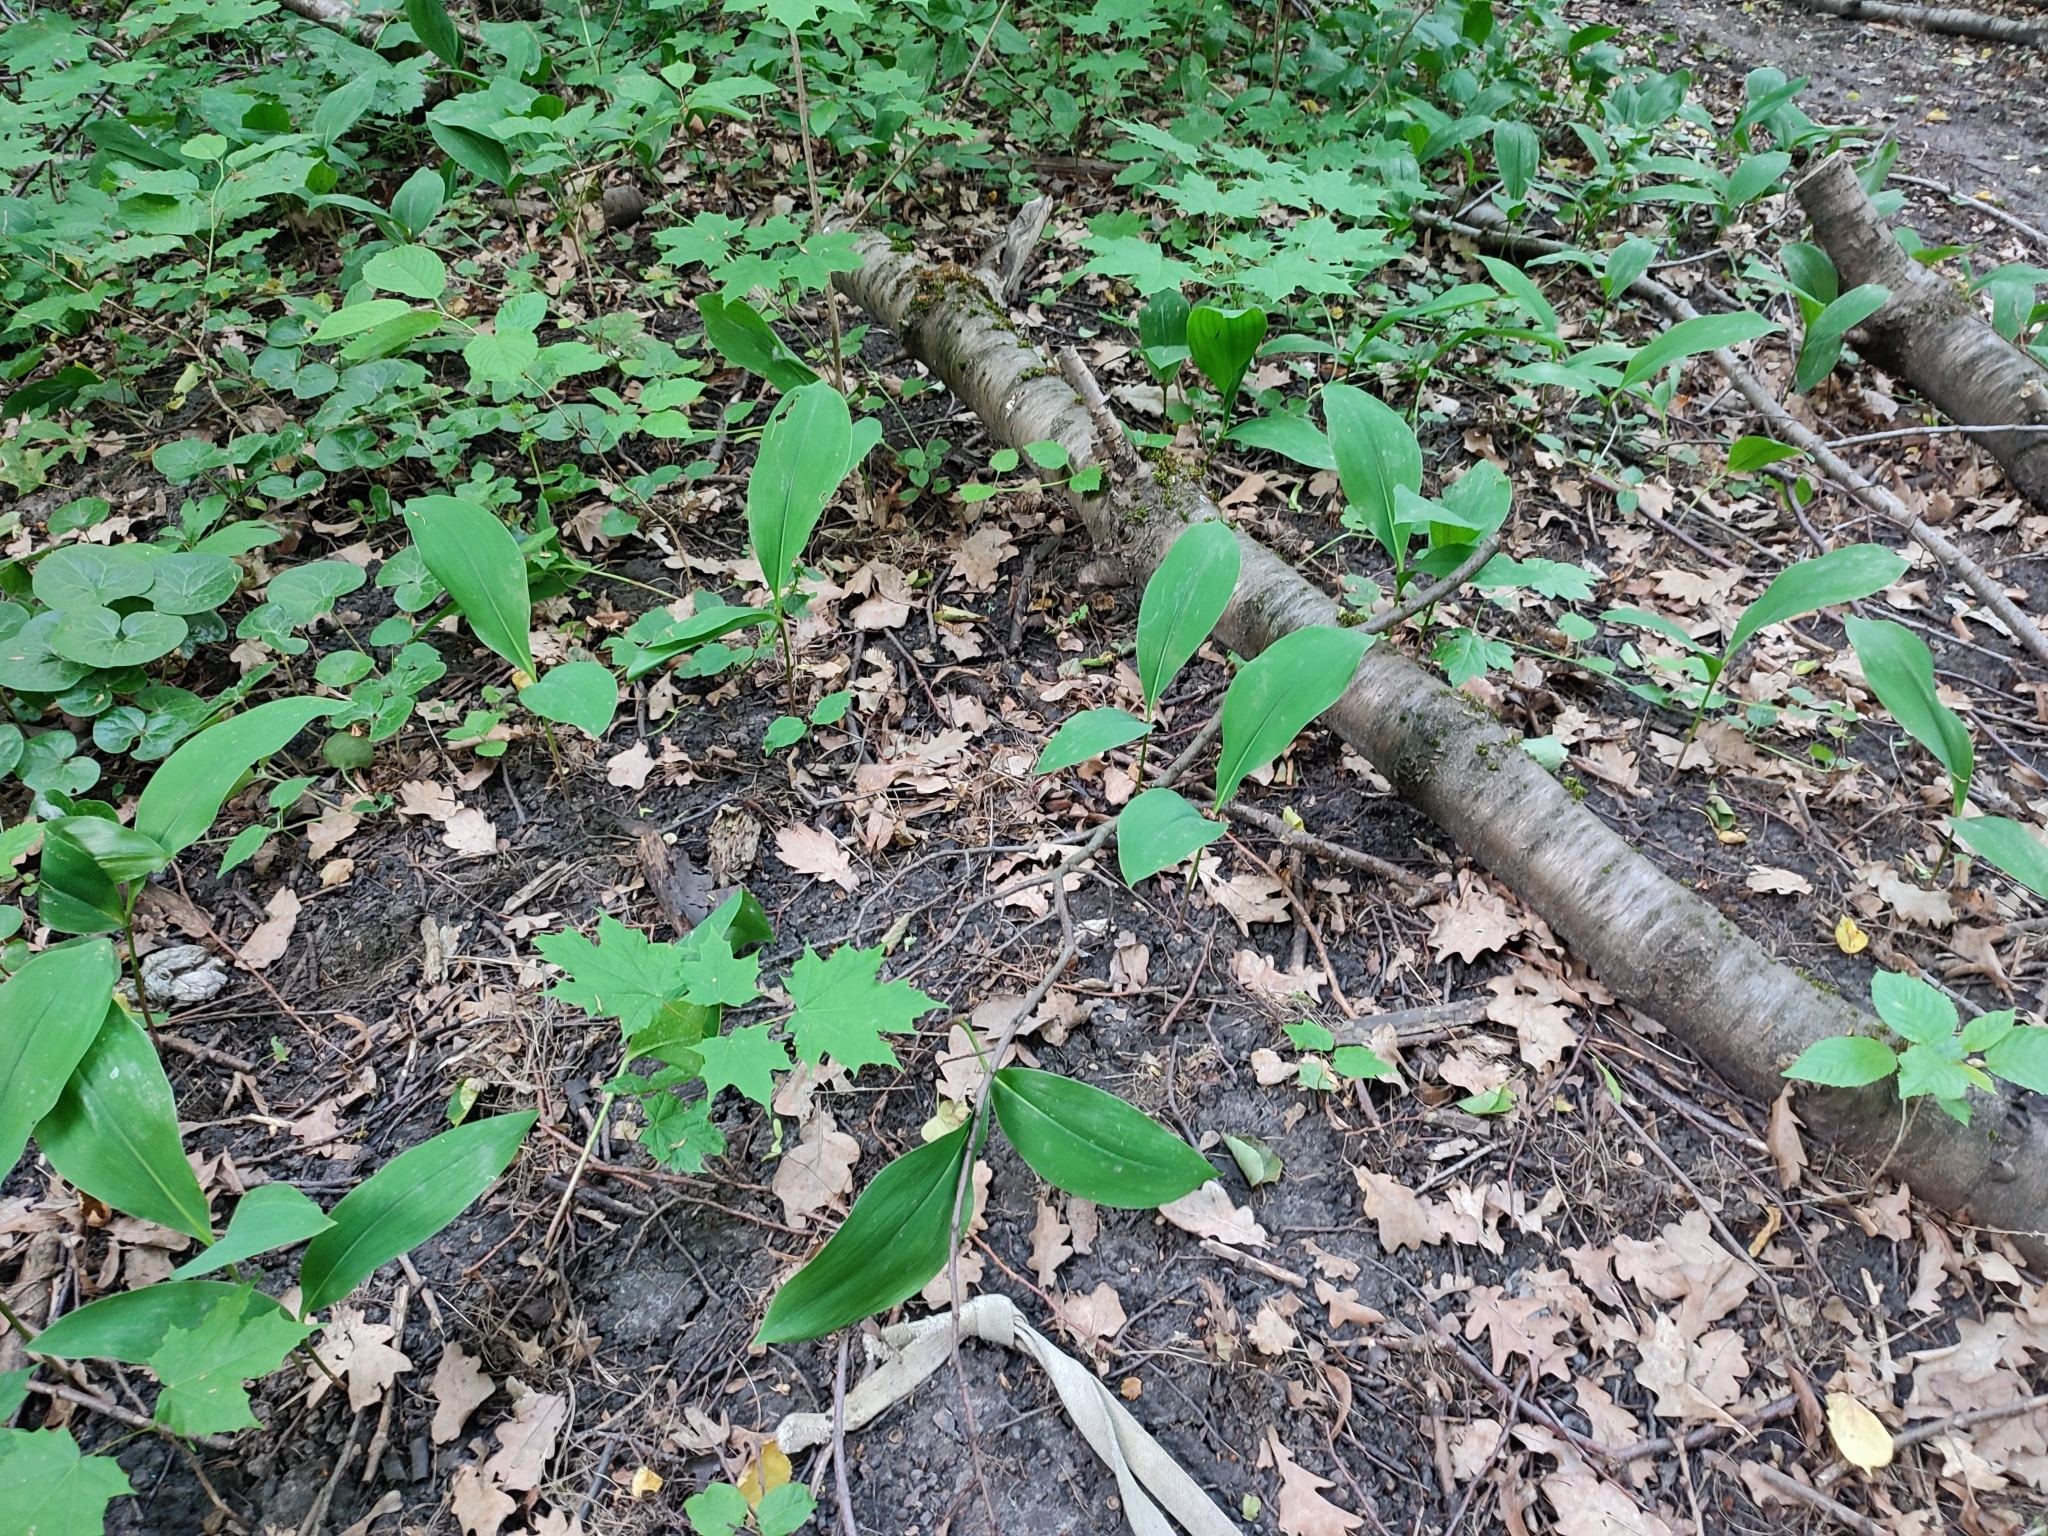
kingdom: Plantae
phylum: Tracheophyta
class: Liliopsida
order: Asparagales
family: Asparagaceae
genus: Convallaria
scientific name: Convallaria majalis
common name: Lily-of-the-valley
